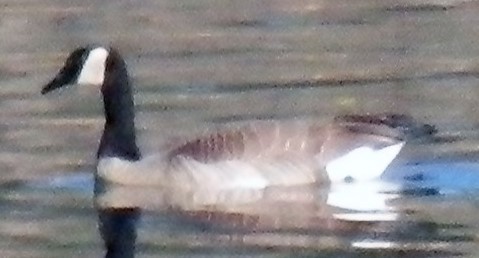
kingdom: Animalia
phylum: Chordata
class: Aves
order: Anseriformes
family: Anatidae
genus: Branta
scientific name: Branta canadensis
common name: Canada goose
